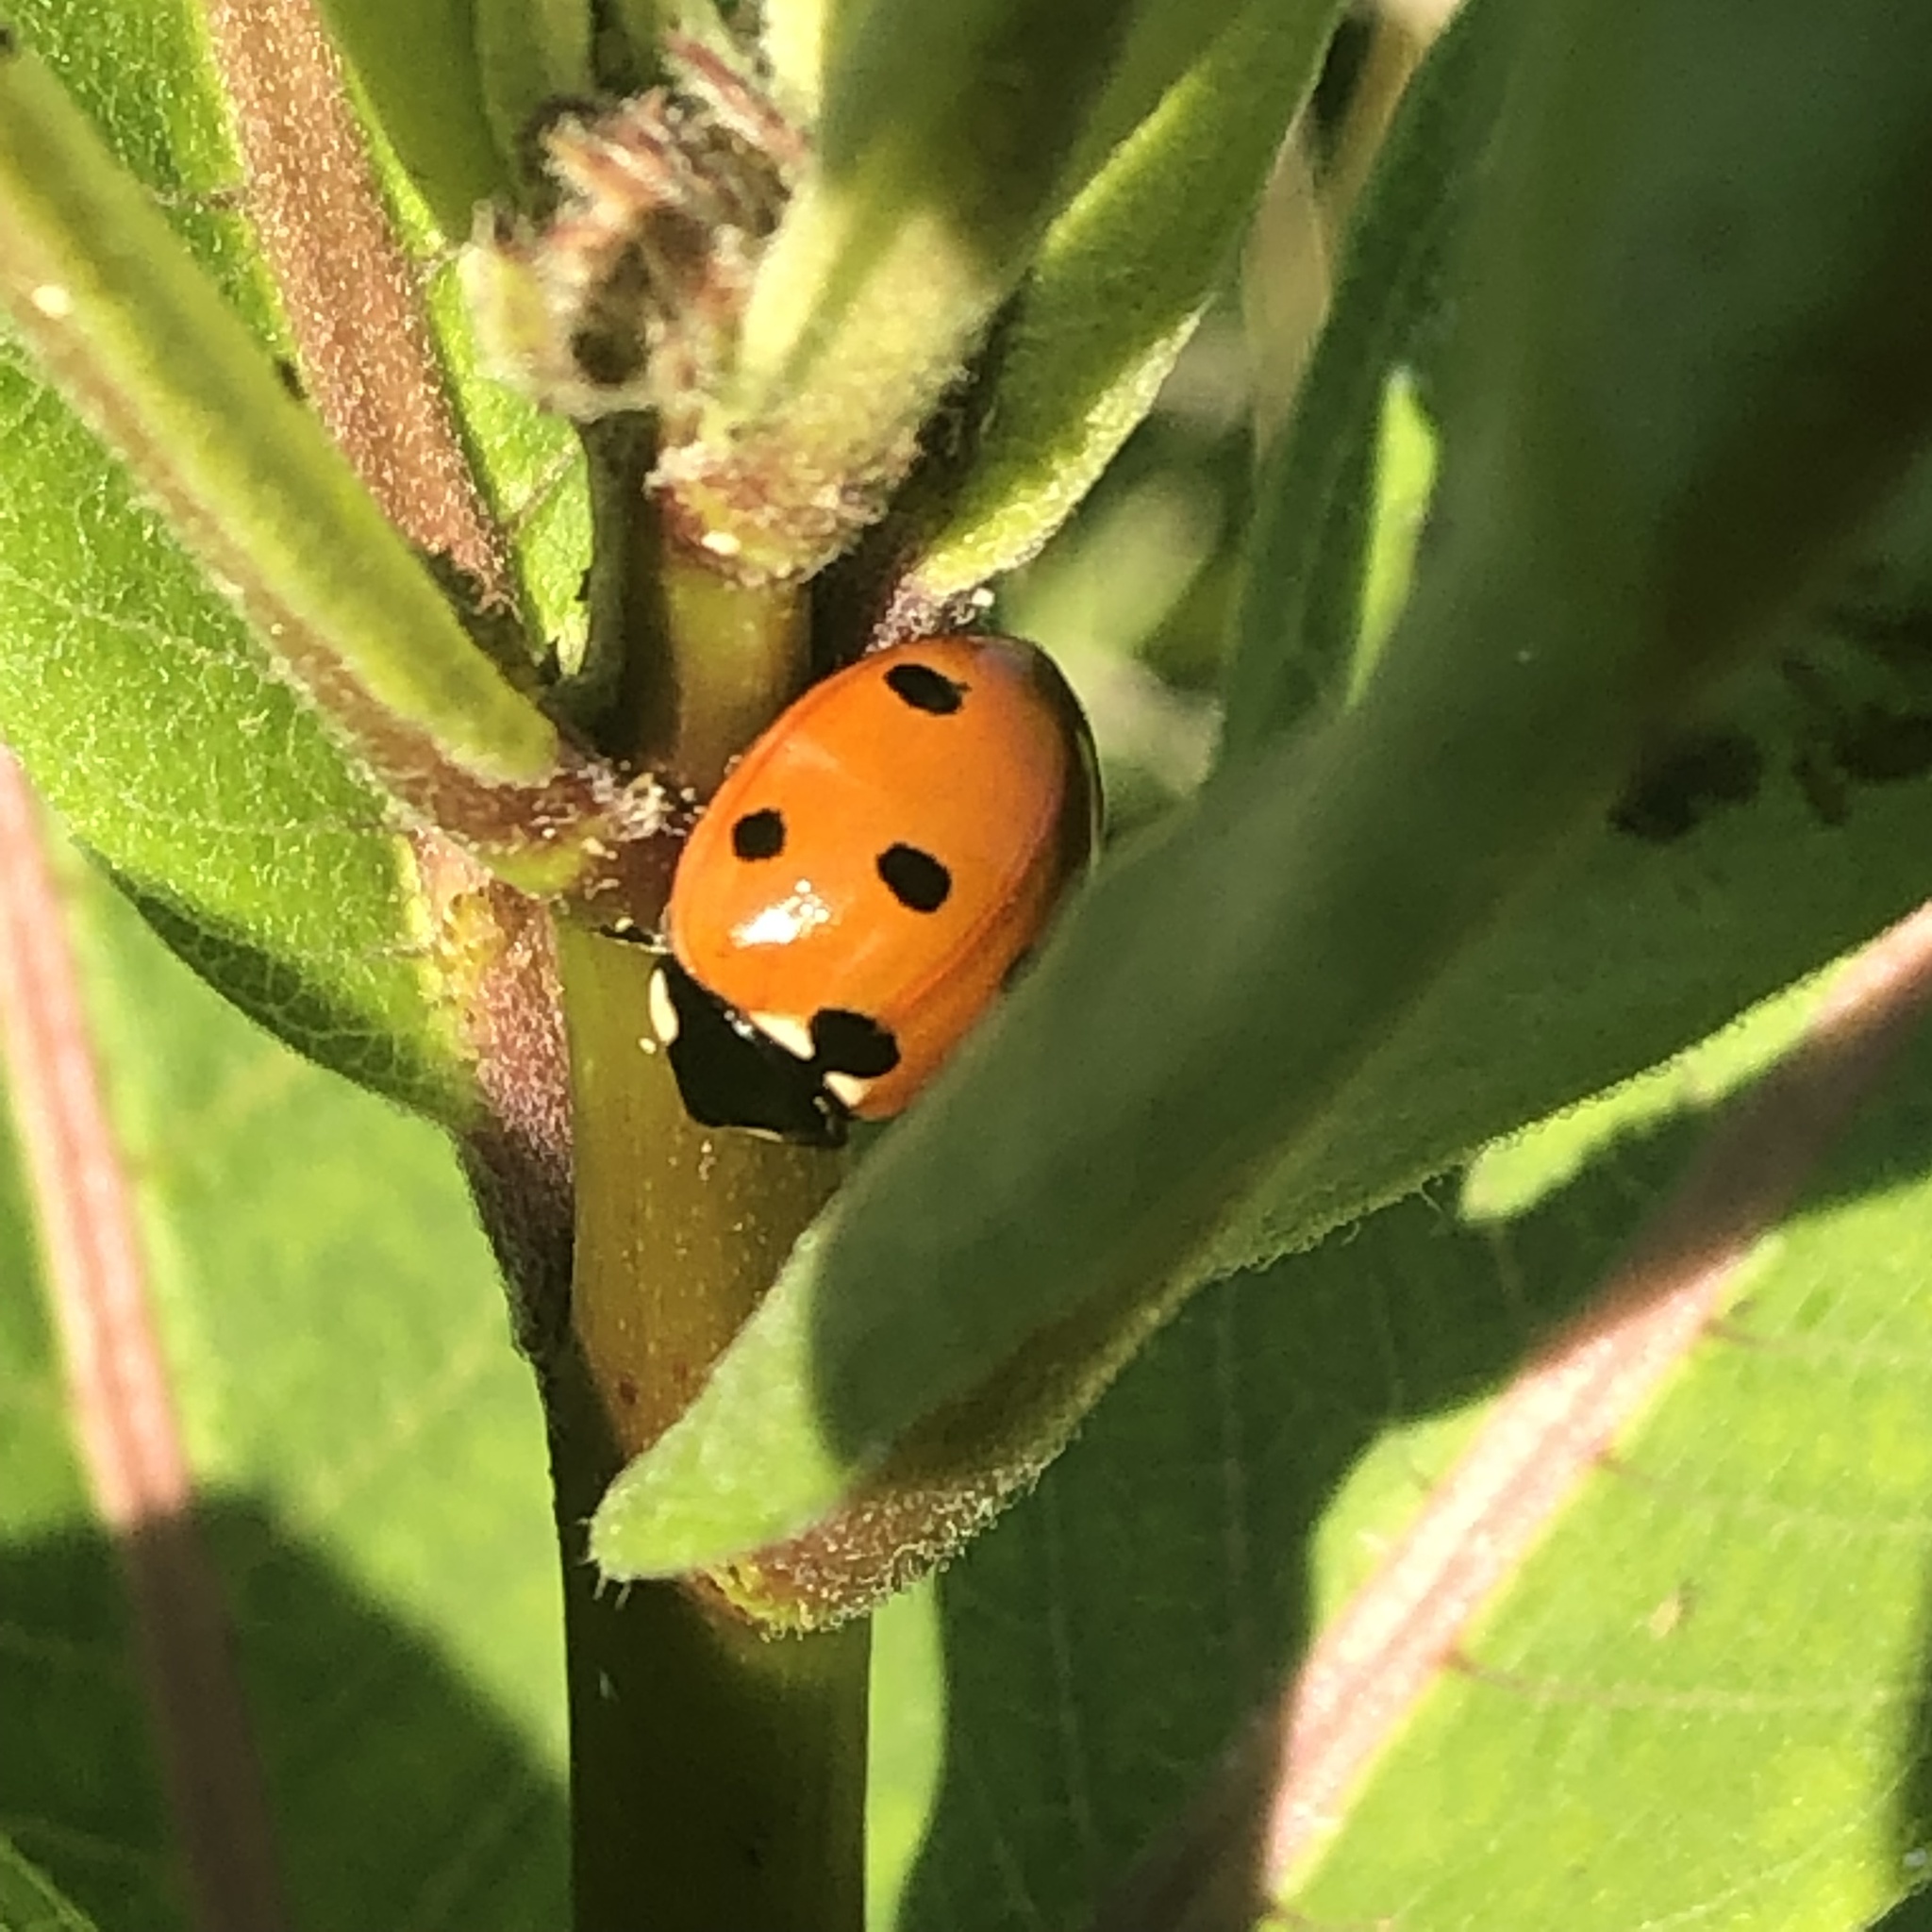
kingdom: Animalia
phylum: Arthropoda
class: Insecta
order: Coleoptera
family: Coccinellidae
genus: Coccinella
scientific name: Coccinella septempunctata
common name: Sevenspotted lady beetle
